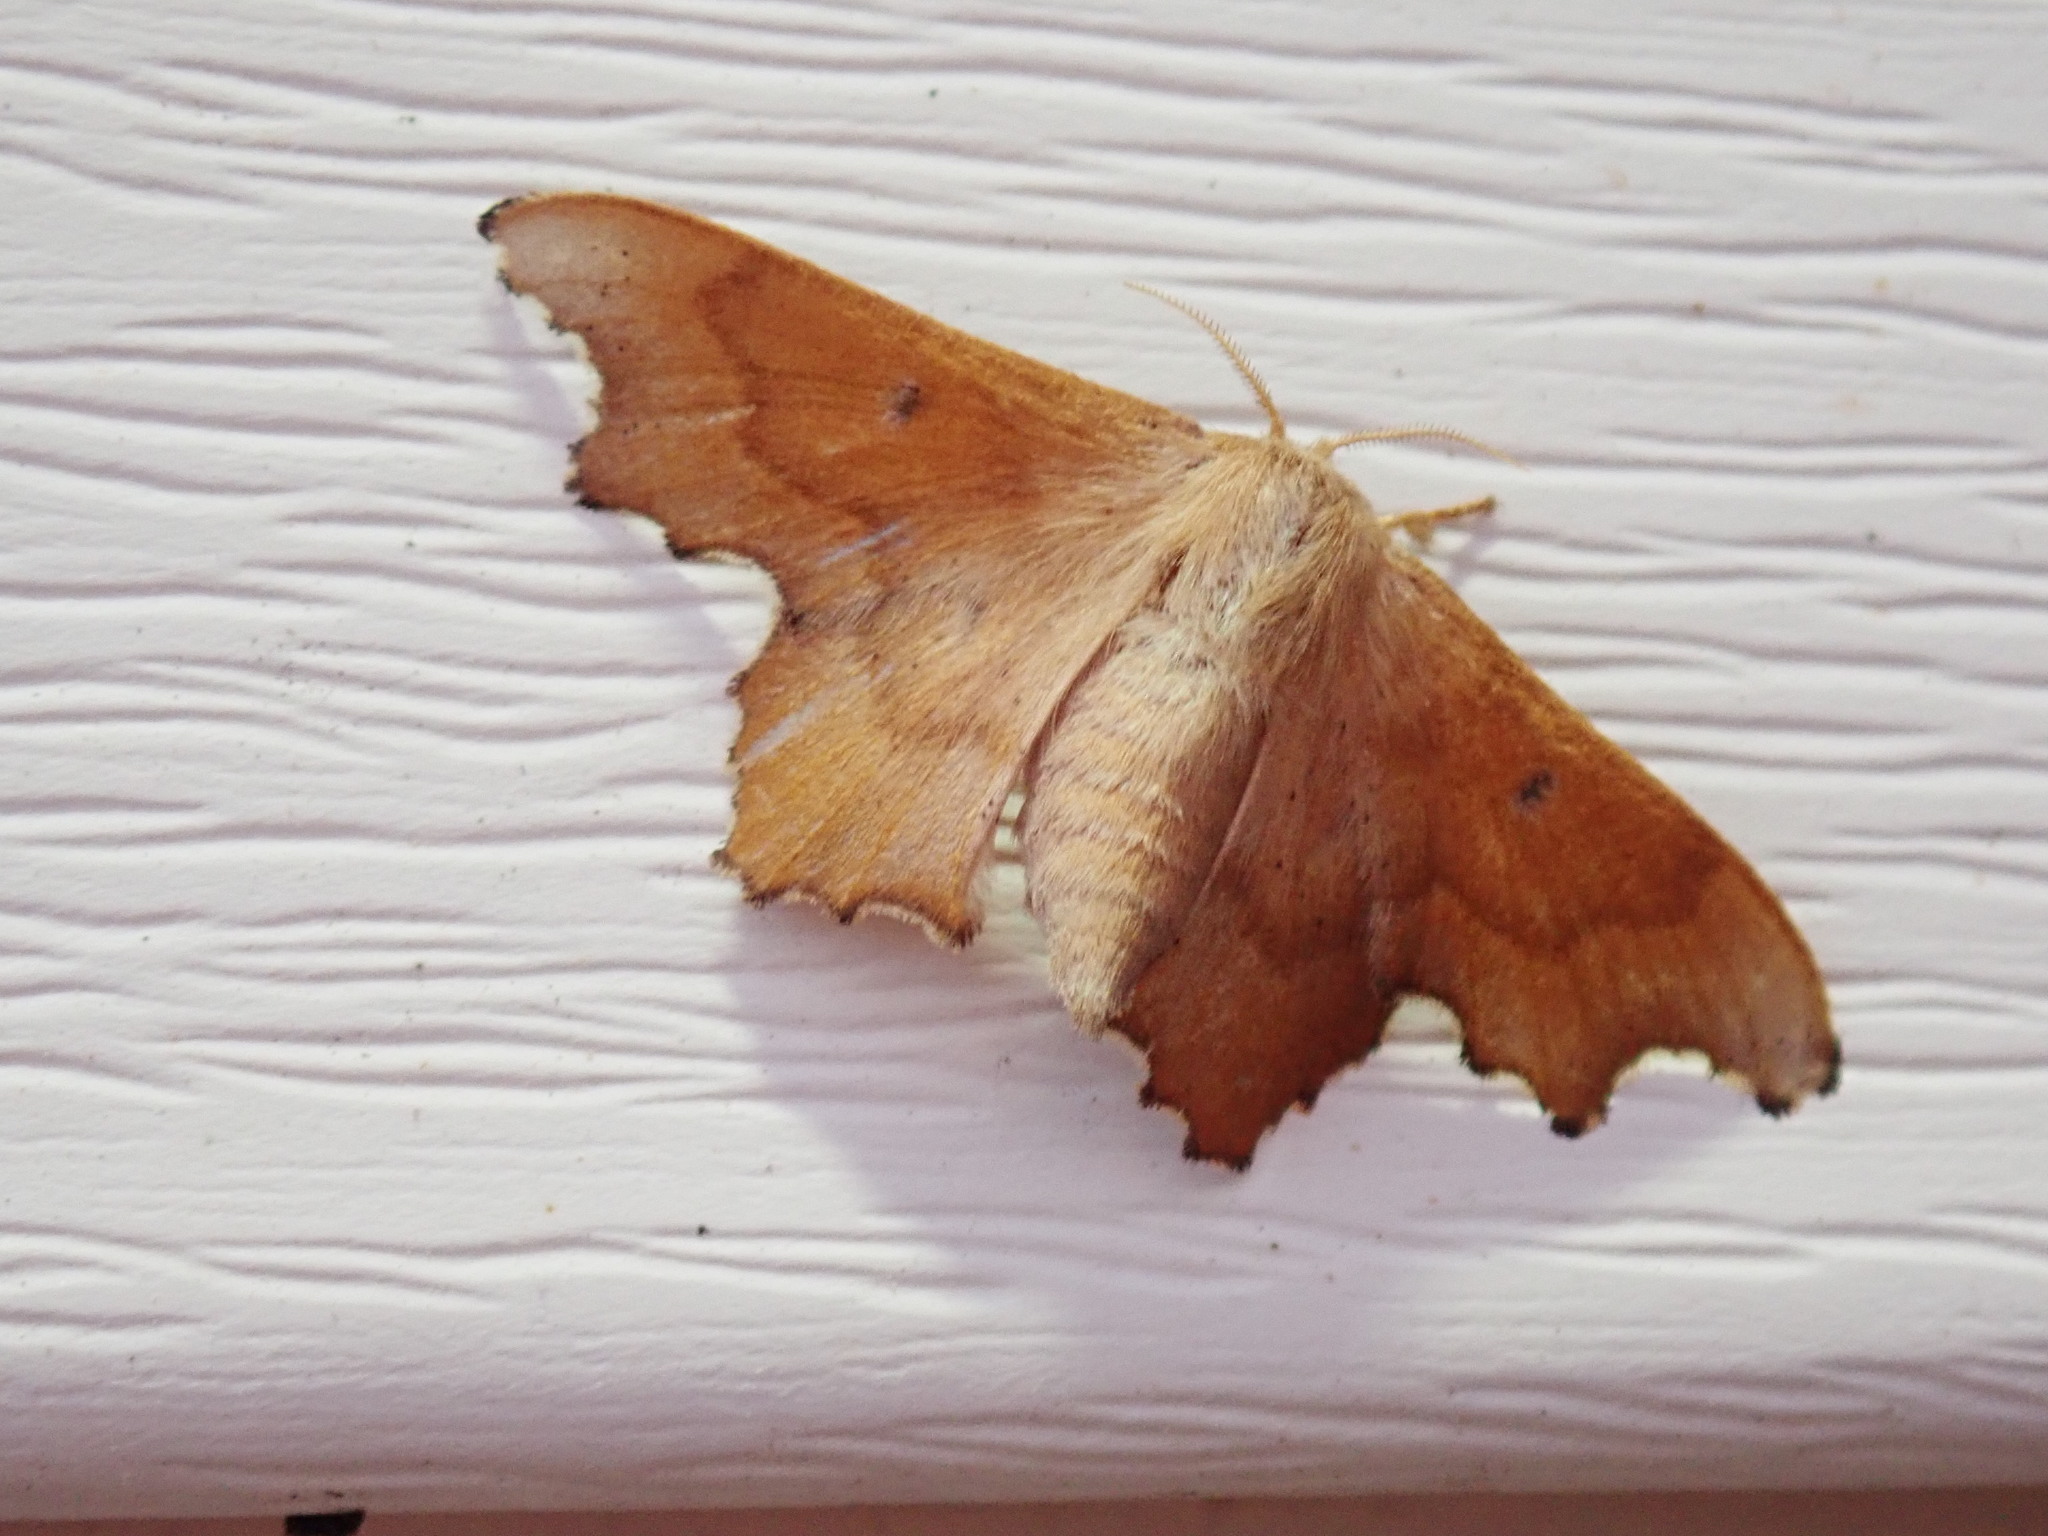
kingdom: Animalia
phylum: Arthropoda
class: Insecta
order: Lepidoptera
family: Mimallonidae
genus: Lacosoma
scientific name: Lacosoma chiridota
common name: Scalloped sack-bearer moth
